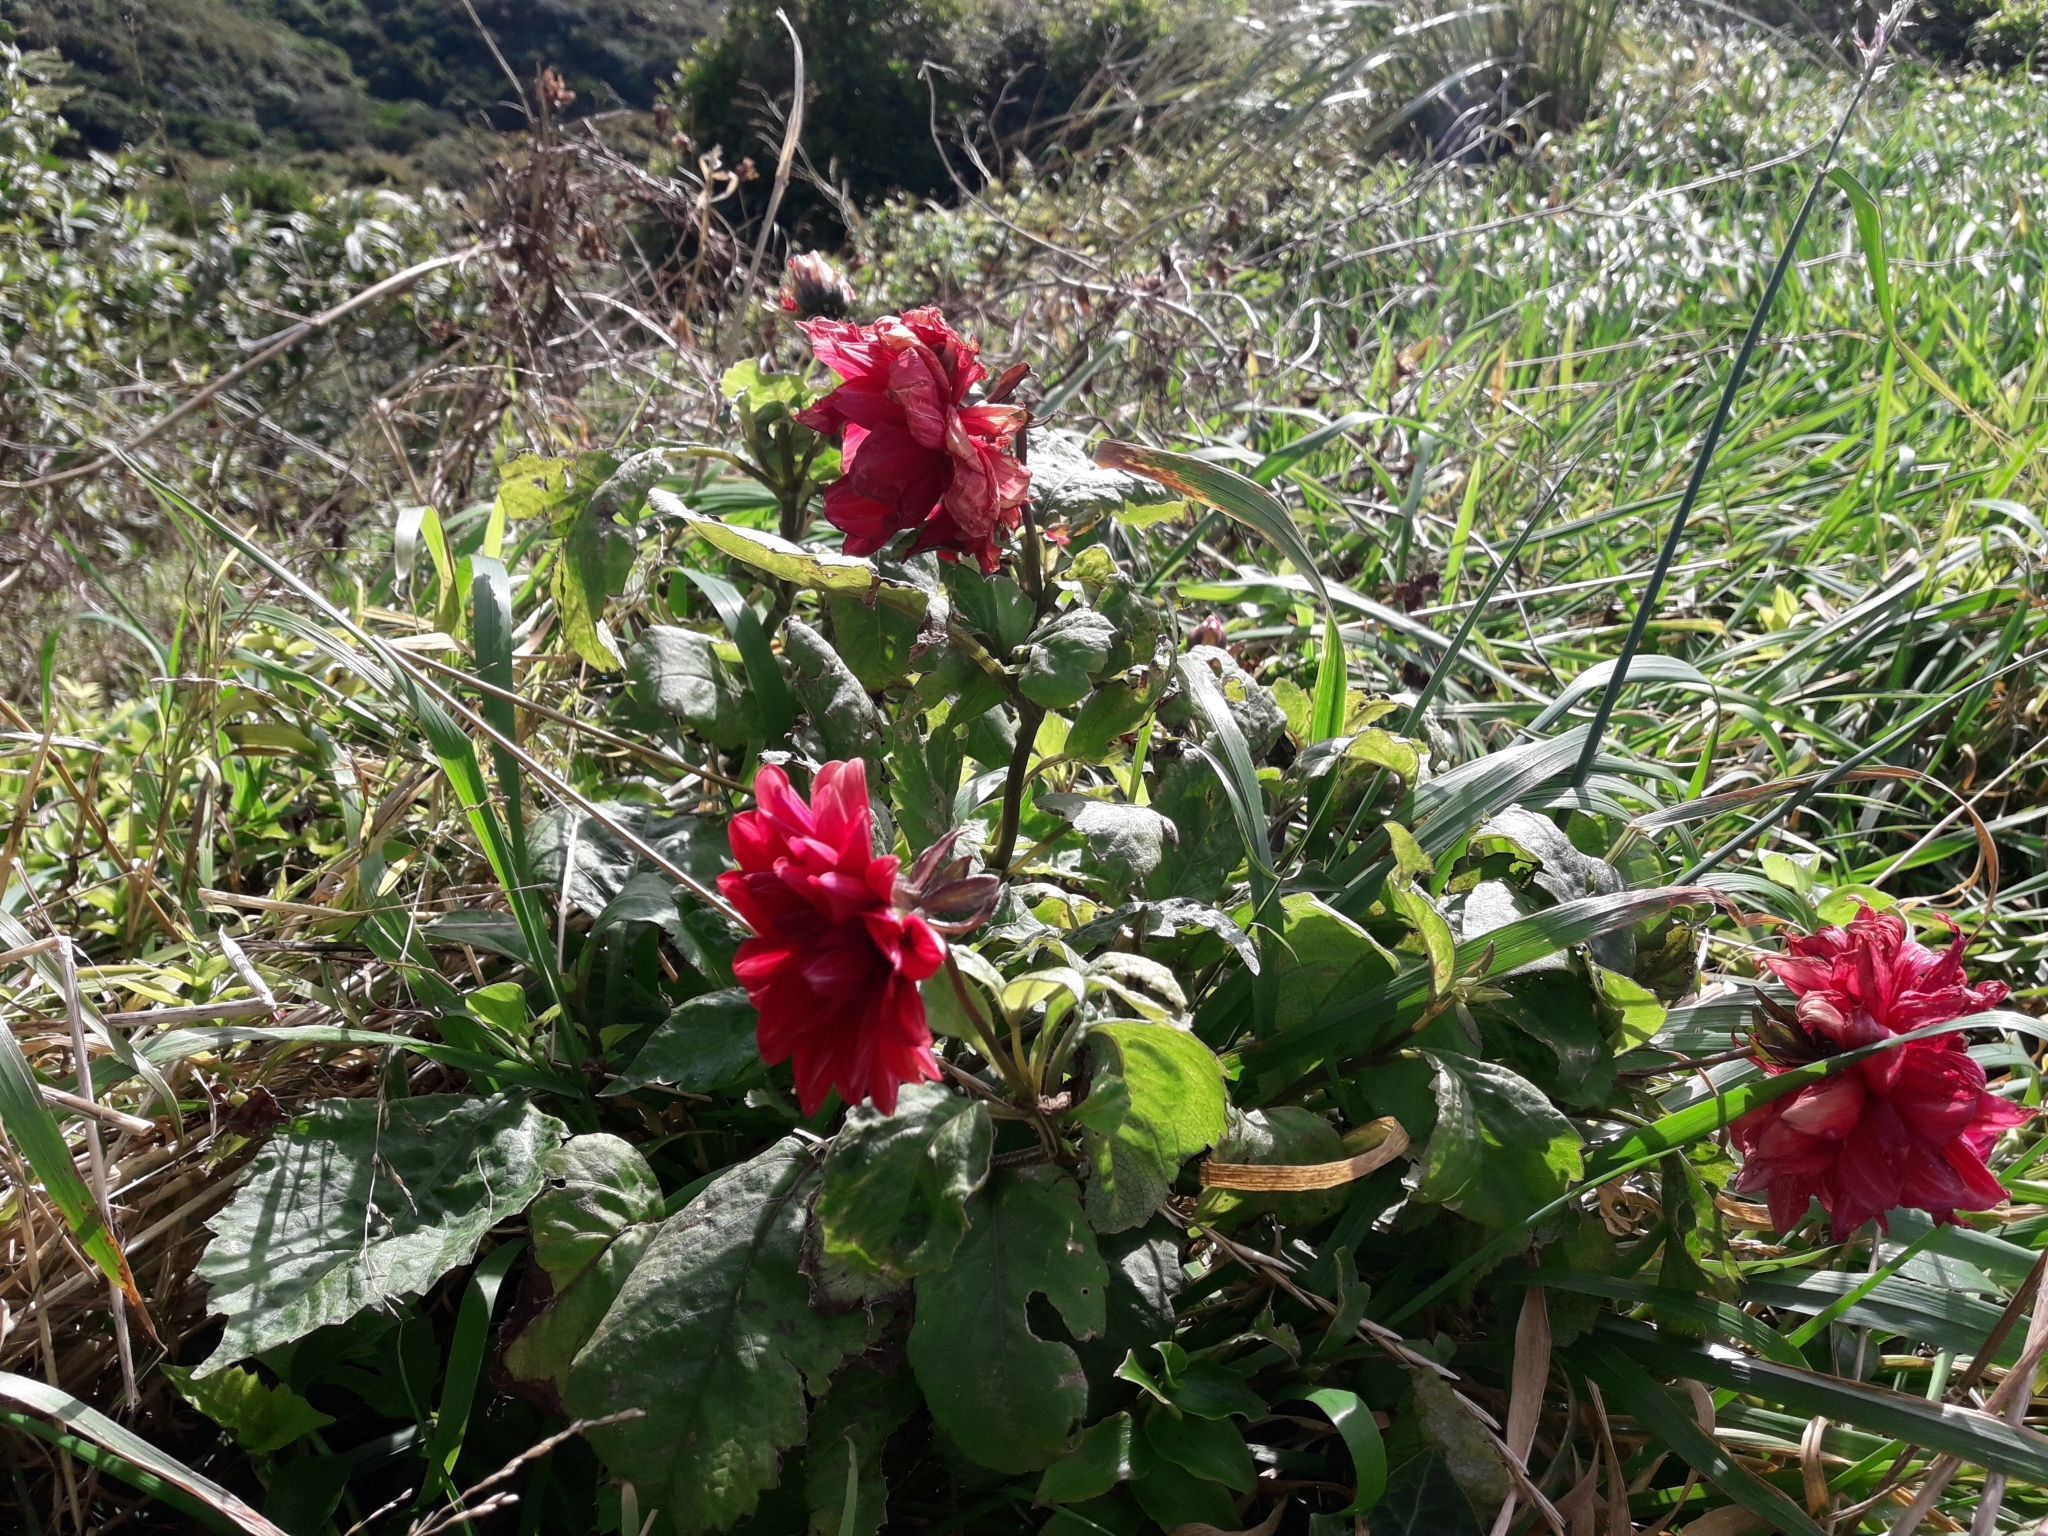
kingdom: Plantae
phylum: Tracheophyta
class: Magnoliopsida
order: Asterales
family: Asteraceae
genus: Dahlia
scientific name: Dahlia pinnata
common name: Dahlia
